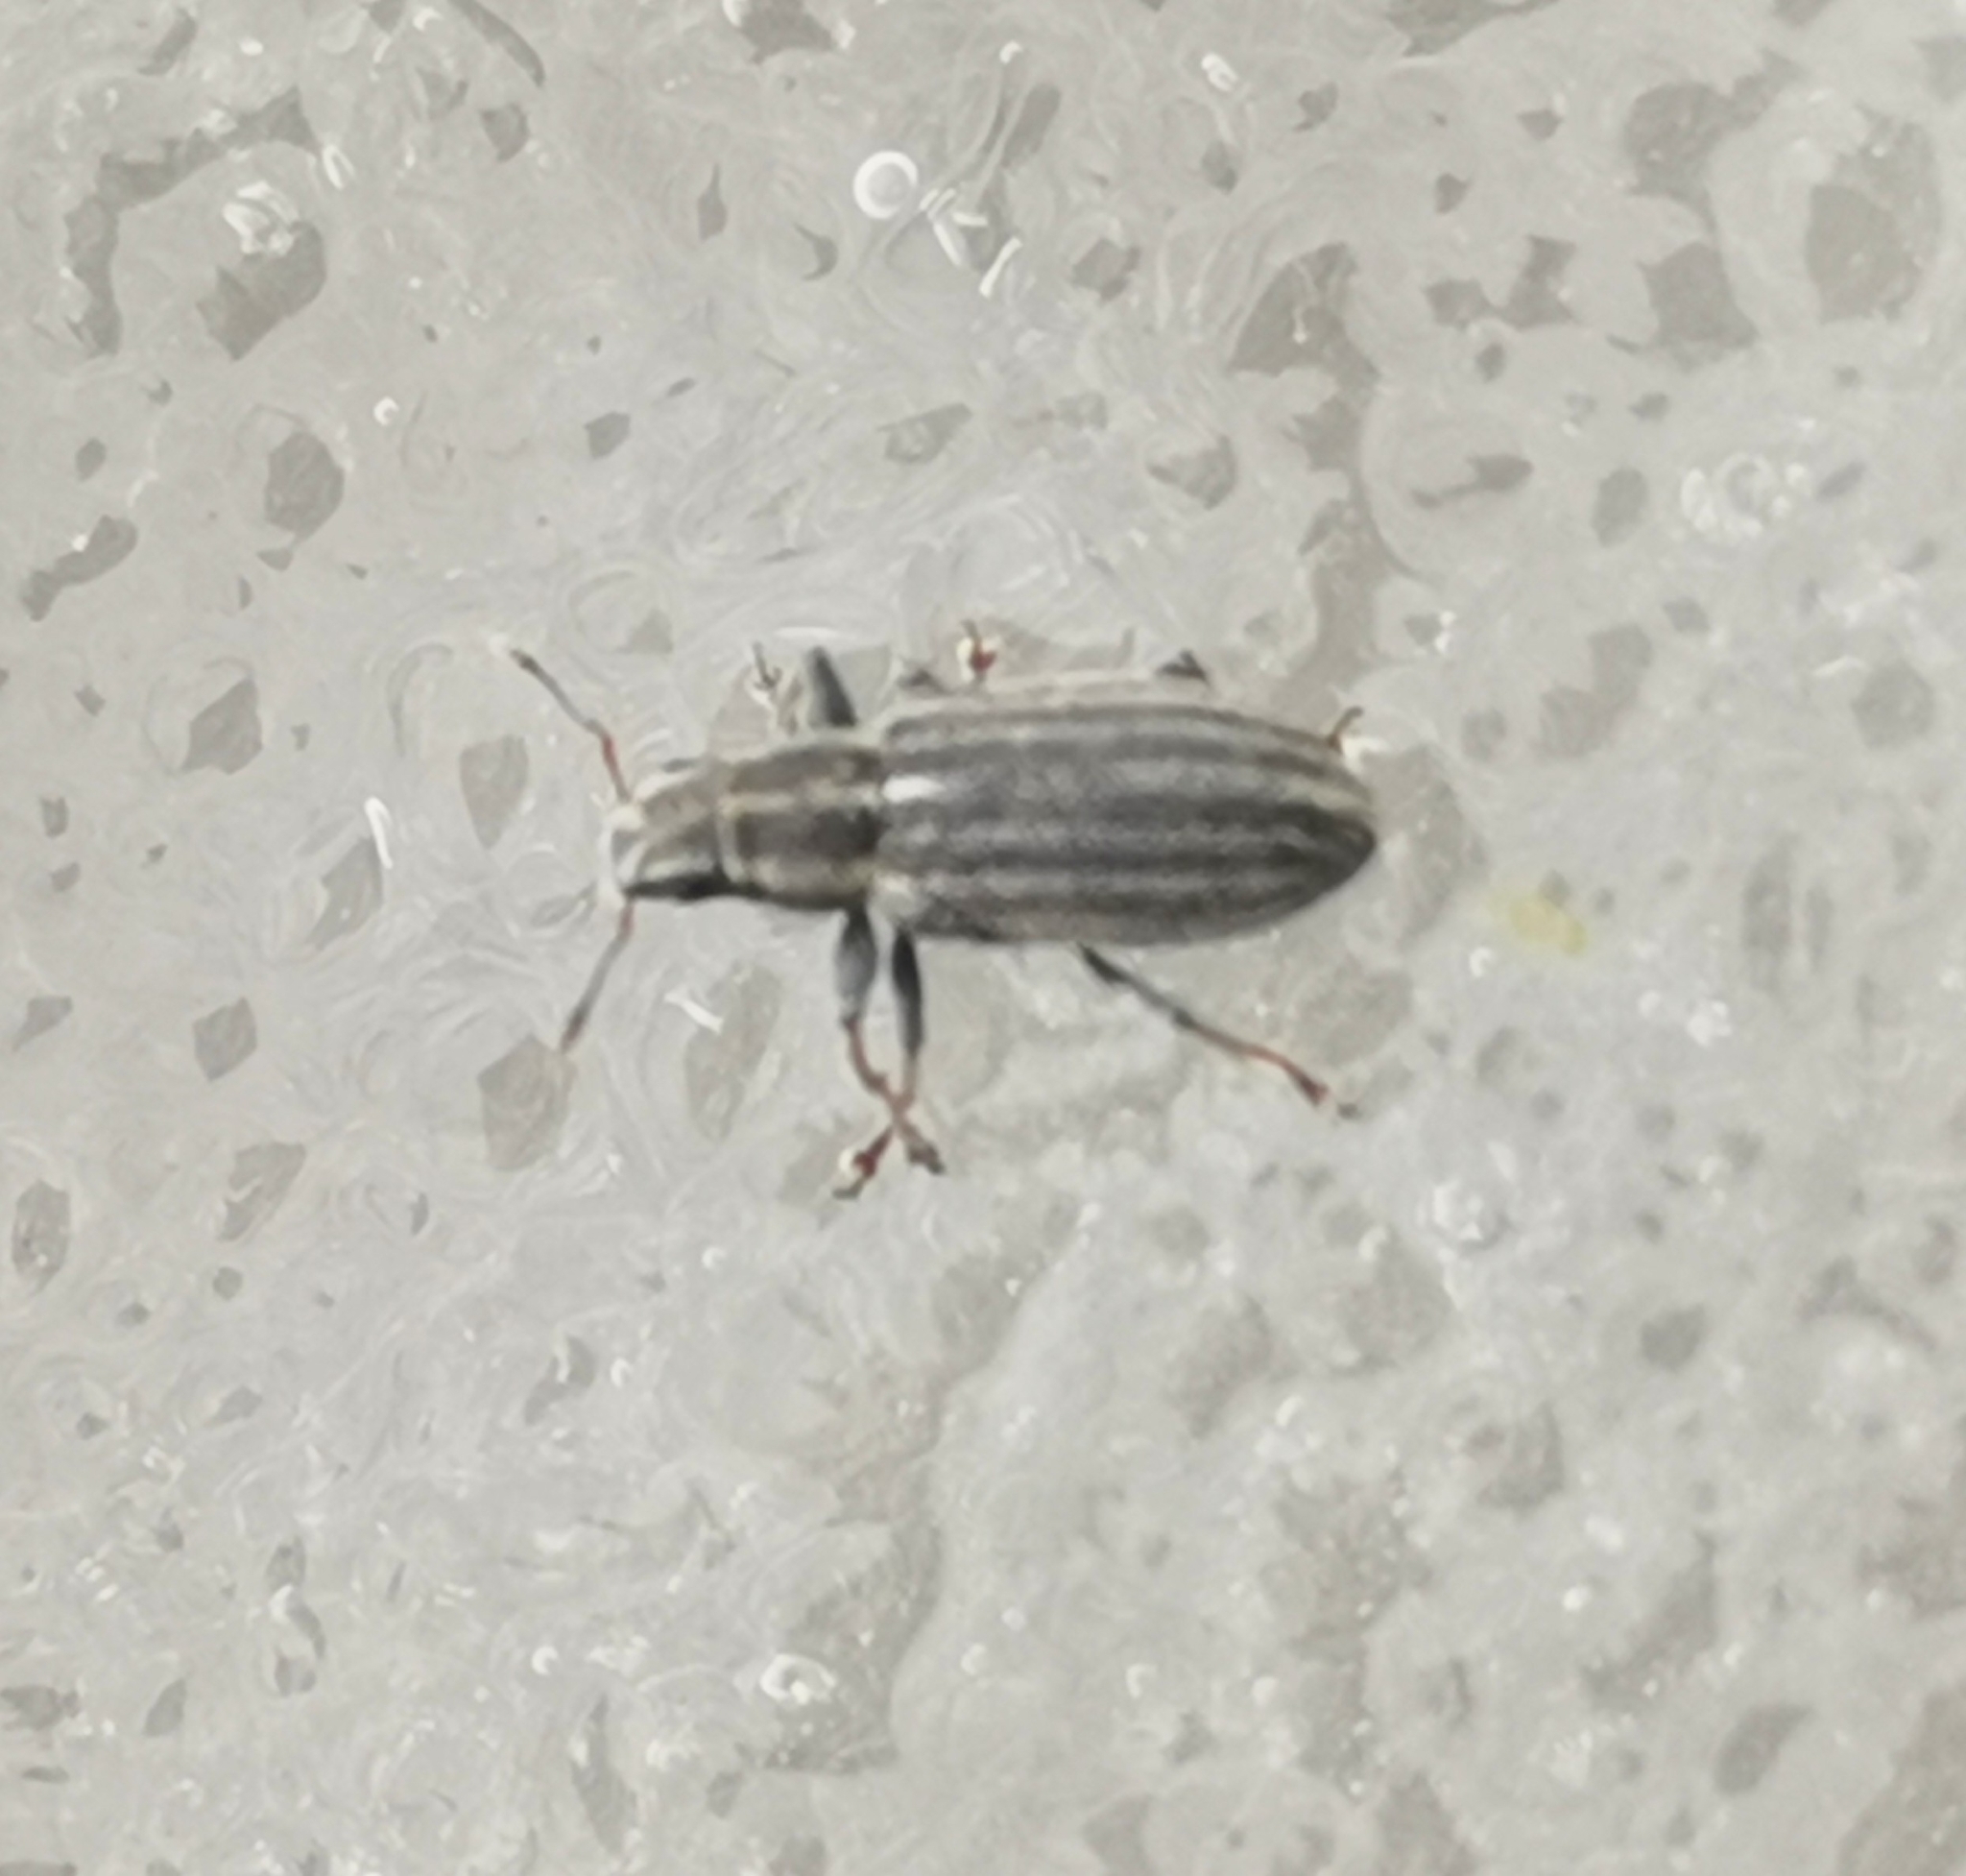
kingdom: Animalia
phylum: Arthropoda
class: Insecta
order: Coleoptera
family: Curculionidae
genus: Sitona
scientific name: Sitona lineatus
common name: Weevil
